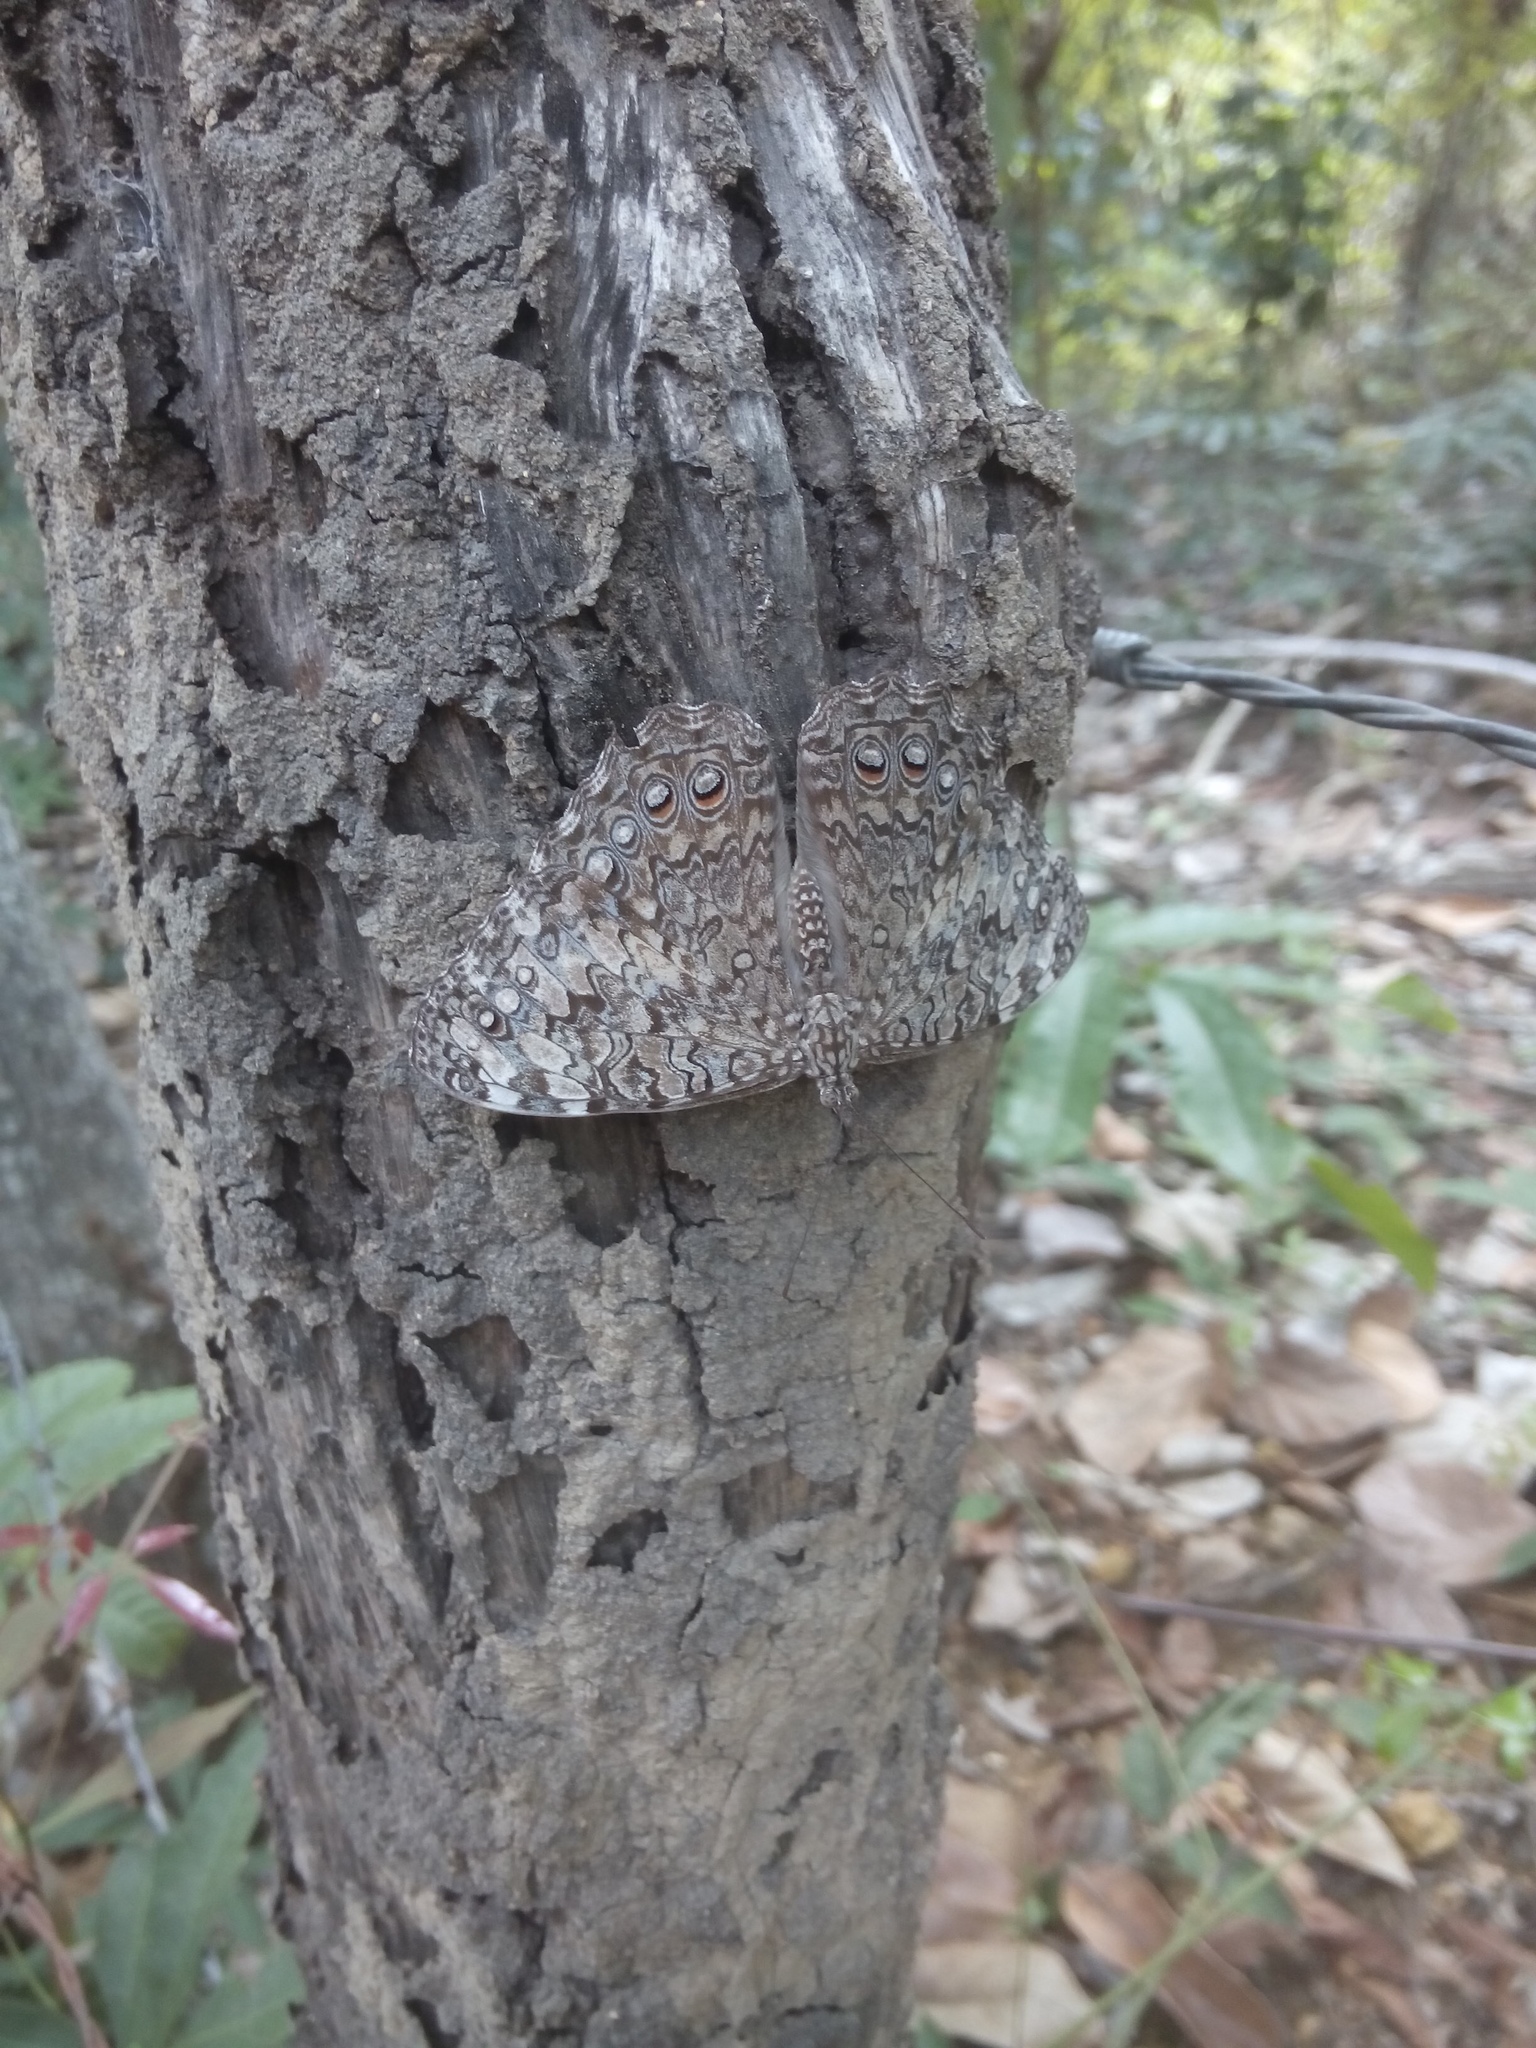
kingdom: Animalia
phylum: Arthropoda
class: Insecta
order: Lepidoptera
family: Nymphalidae
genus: Hamadryas
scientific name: Hamadryas februa
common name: Gray cracker
